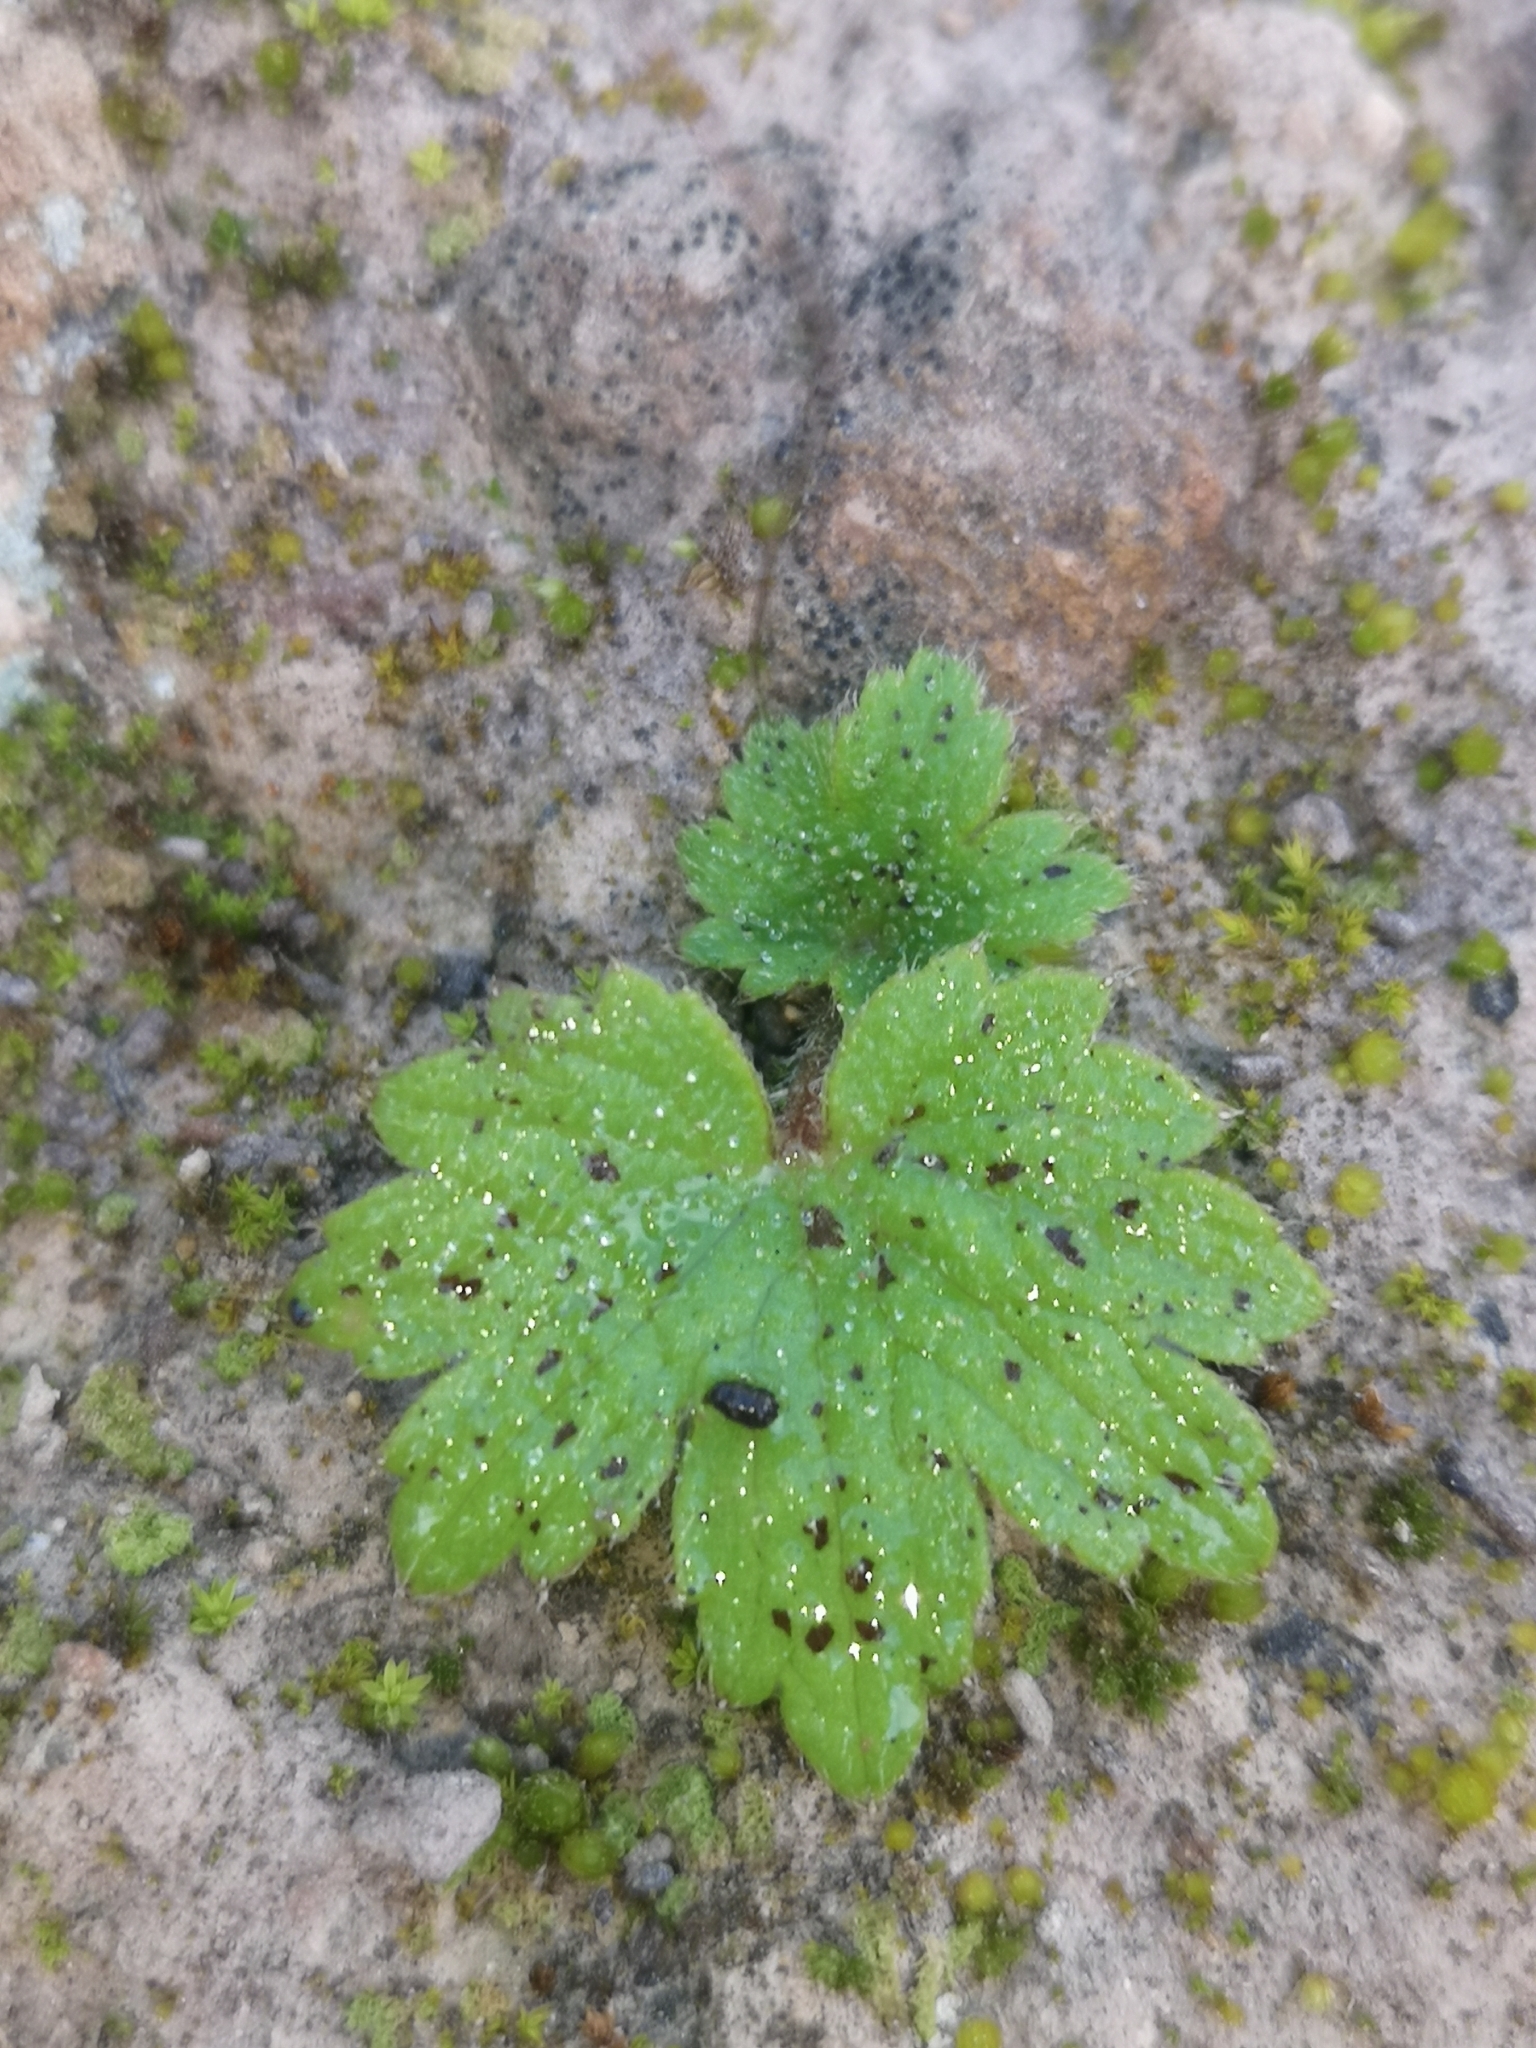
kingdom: Plantae
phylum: Tracheophyta
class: Magnoliopsida
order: Ranunculales
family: Ranunculaceae
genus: Ranunculus
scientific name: Ranunculus cortusifolius
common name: Azores buttercup
